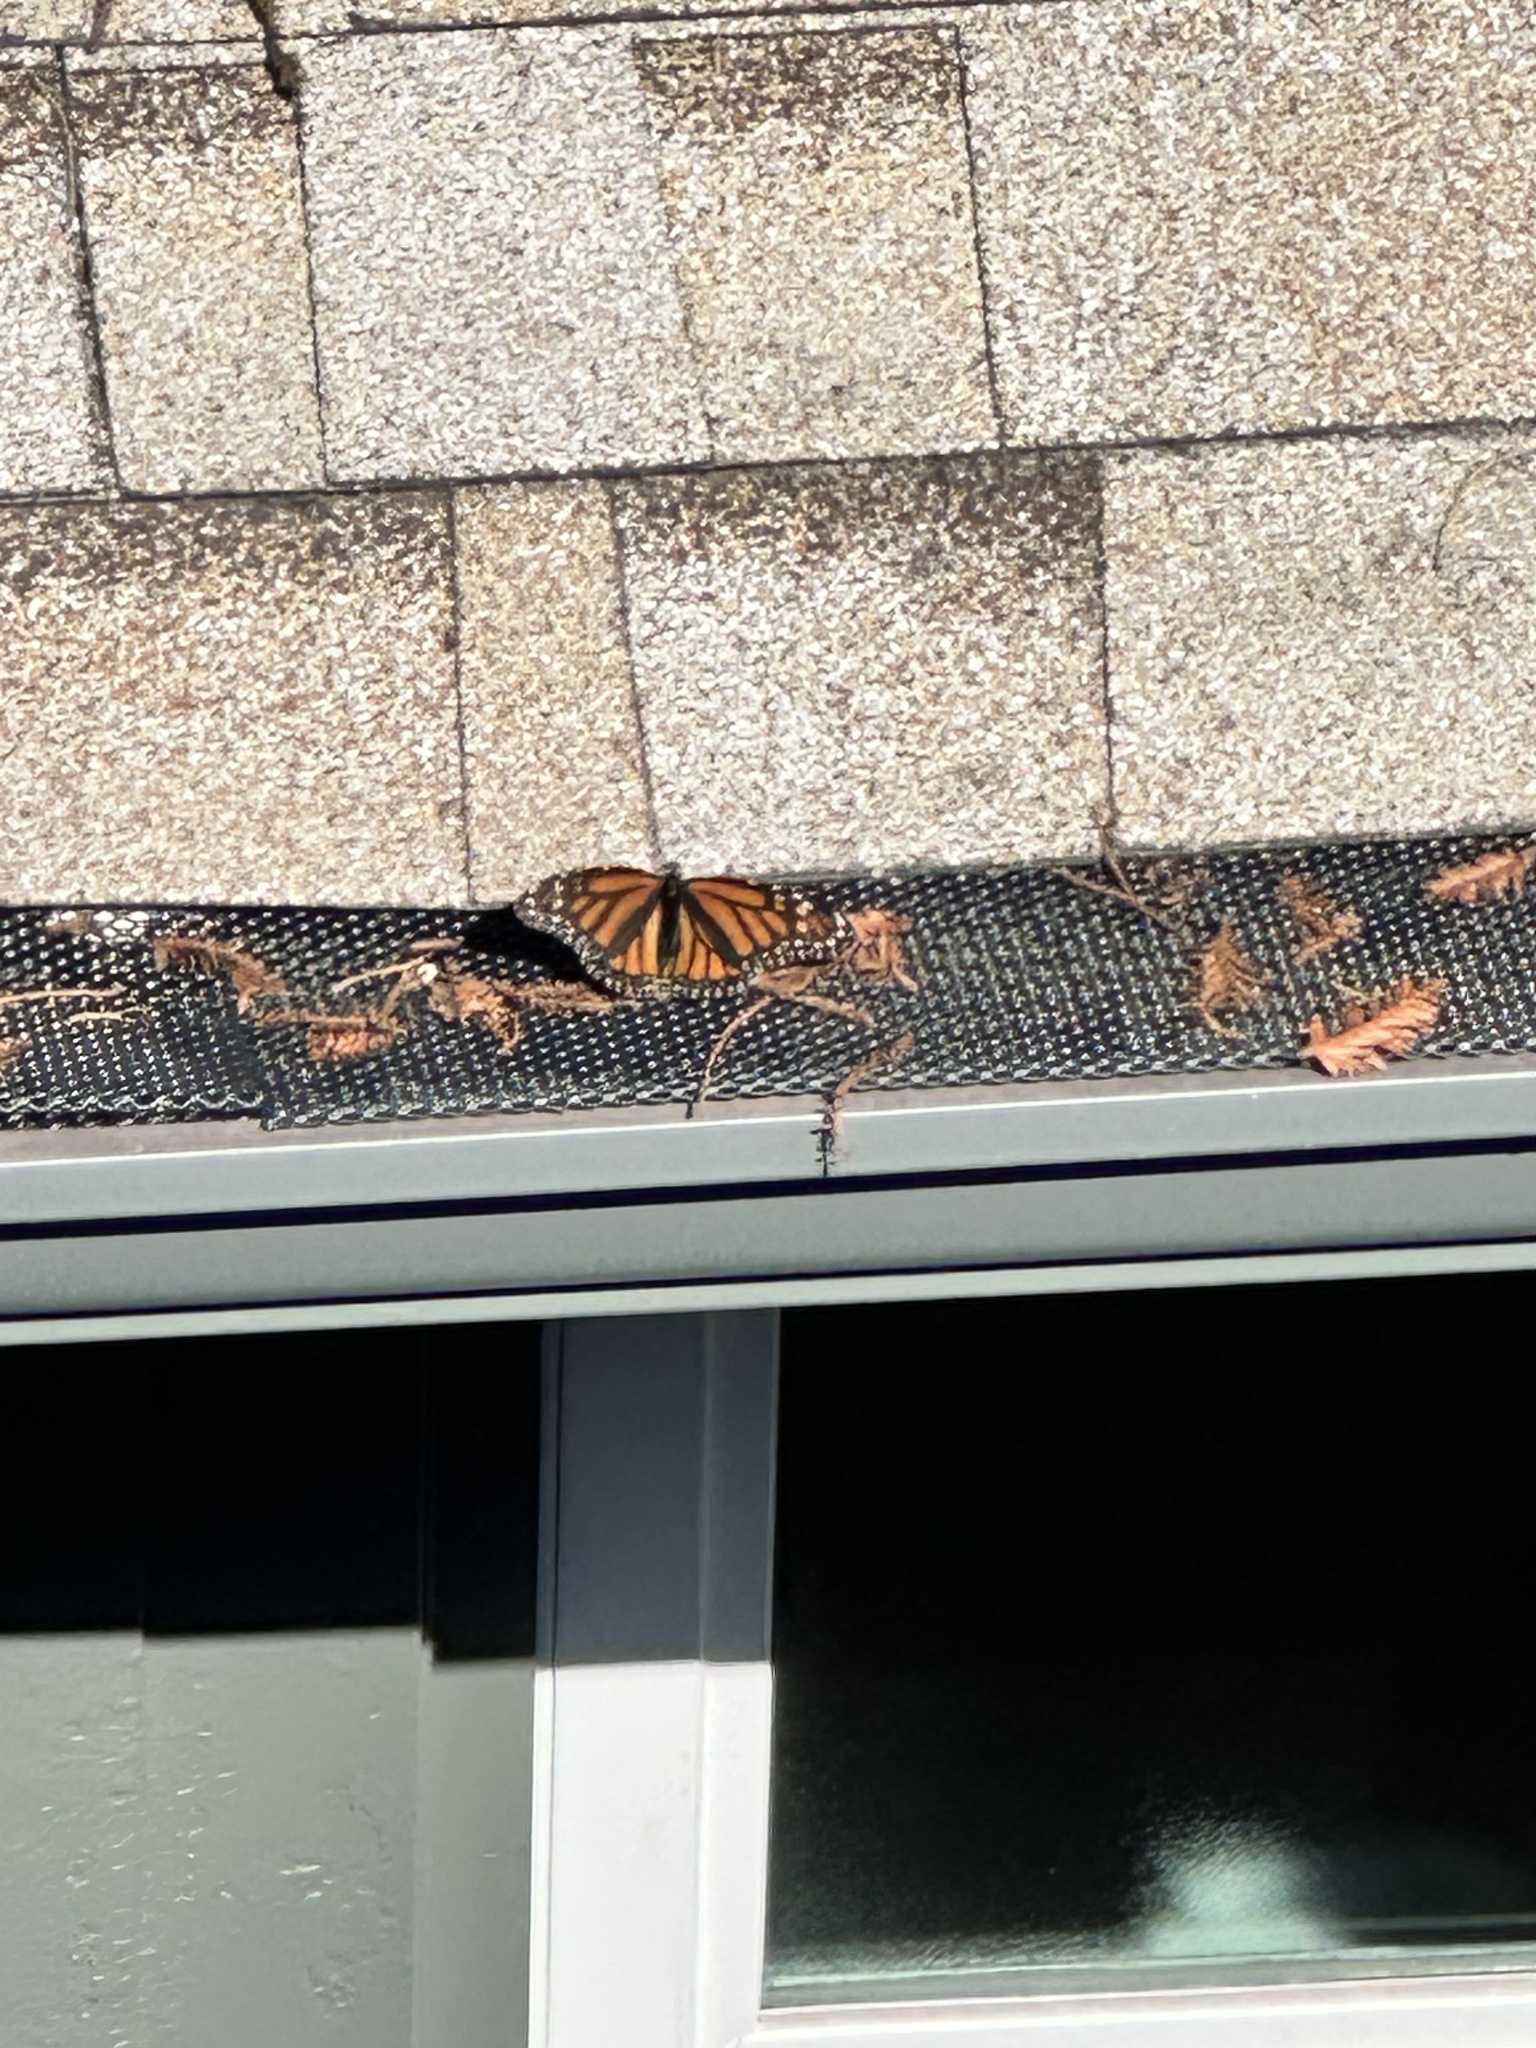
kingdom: Animalia
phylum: Arthropoda
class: Insecta
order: Lepidoptera
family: Nymphalidae
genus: Danaus
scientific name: Danaus plexippus
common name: Monarch
